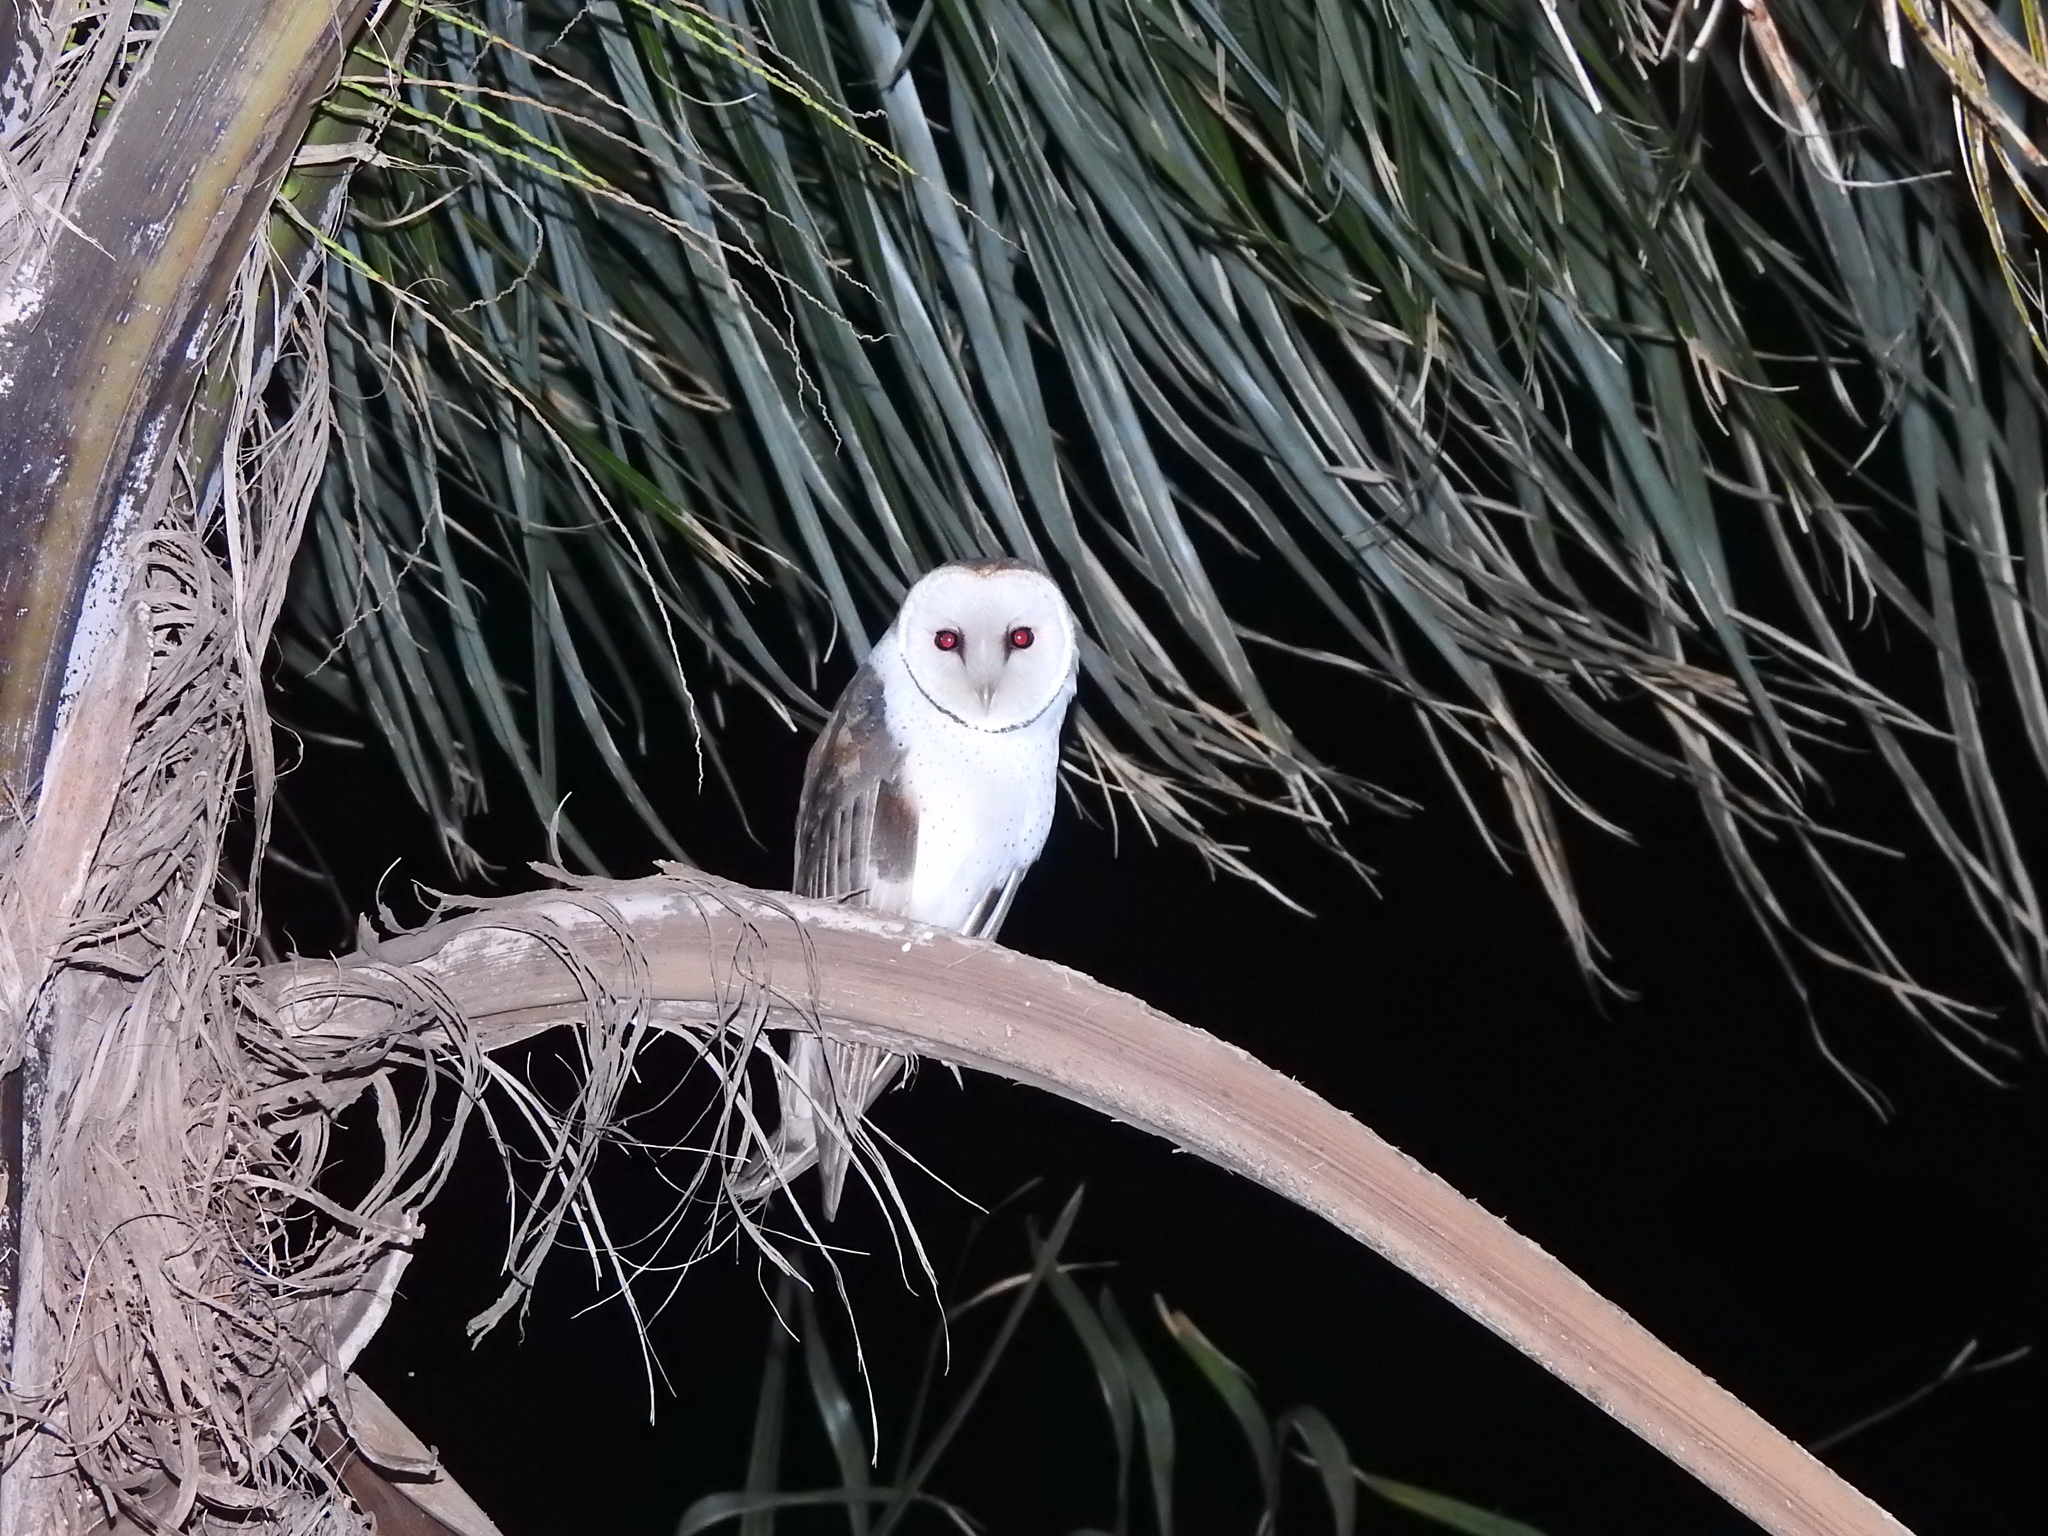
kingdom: Animalia
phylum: Chordata
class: Aves
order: Strigiformes
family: Tytonidae
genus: Tyto
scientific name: Tyto alba
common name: Barn owl
